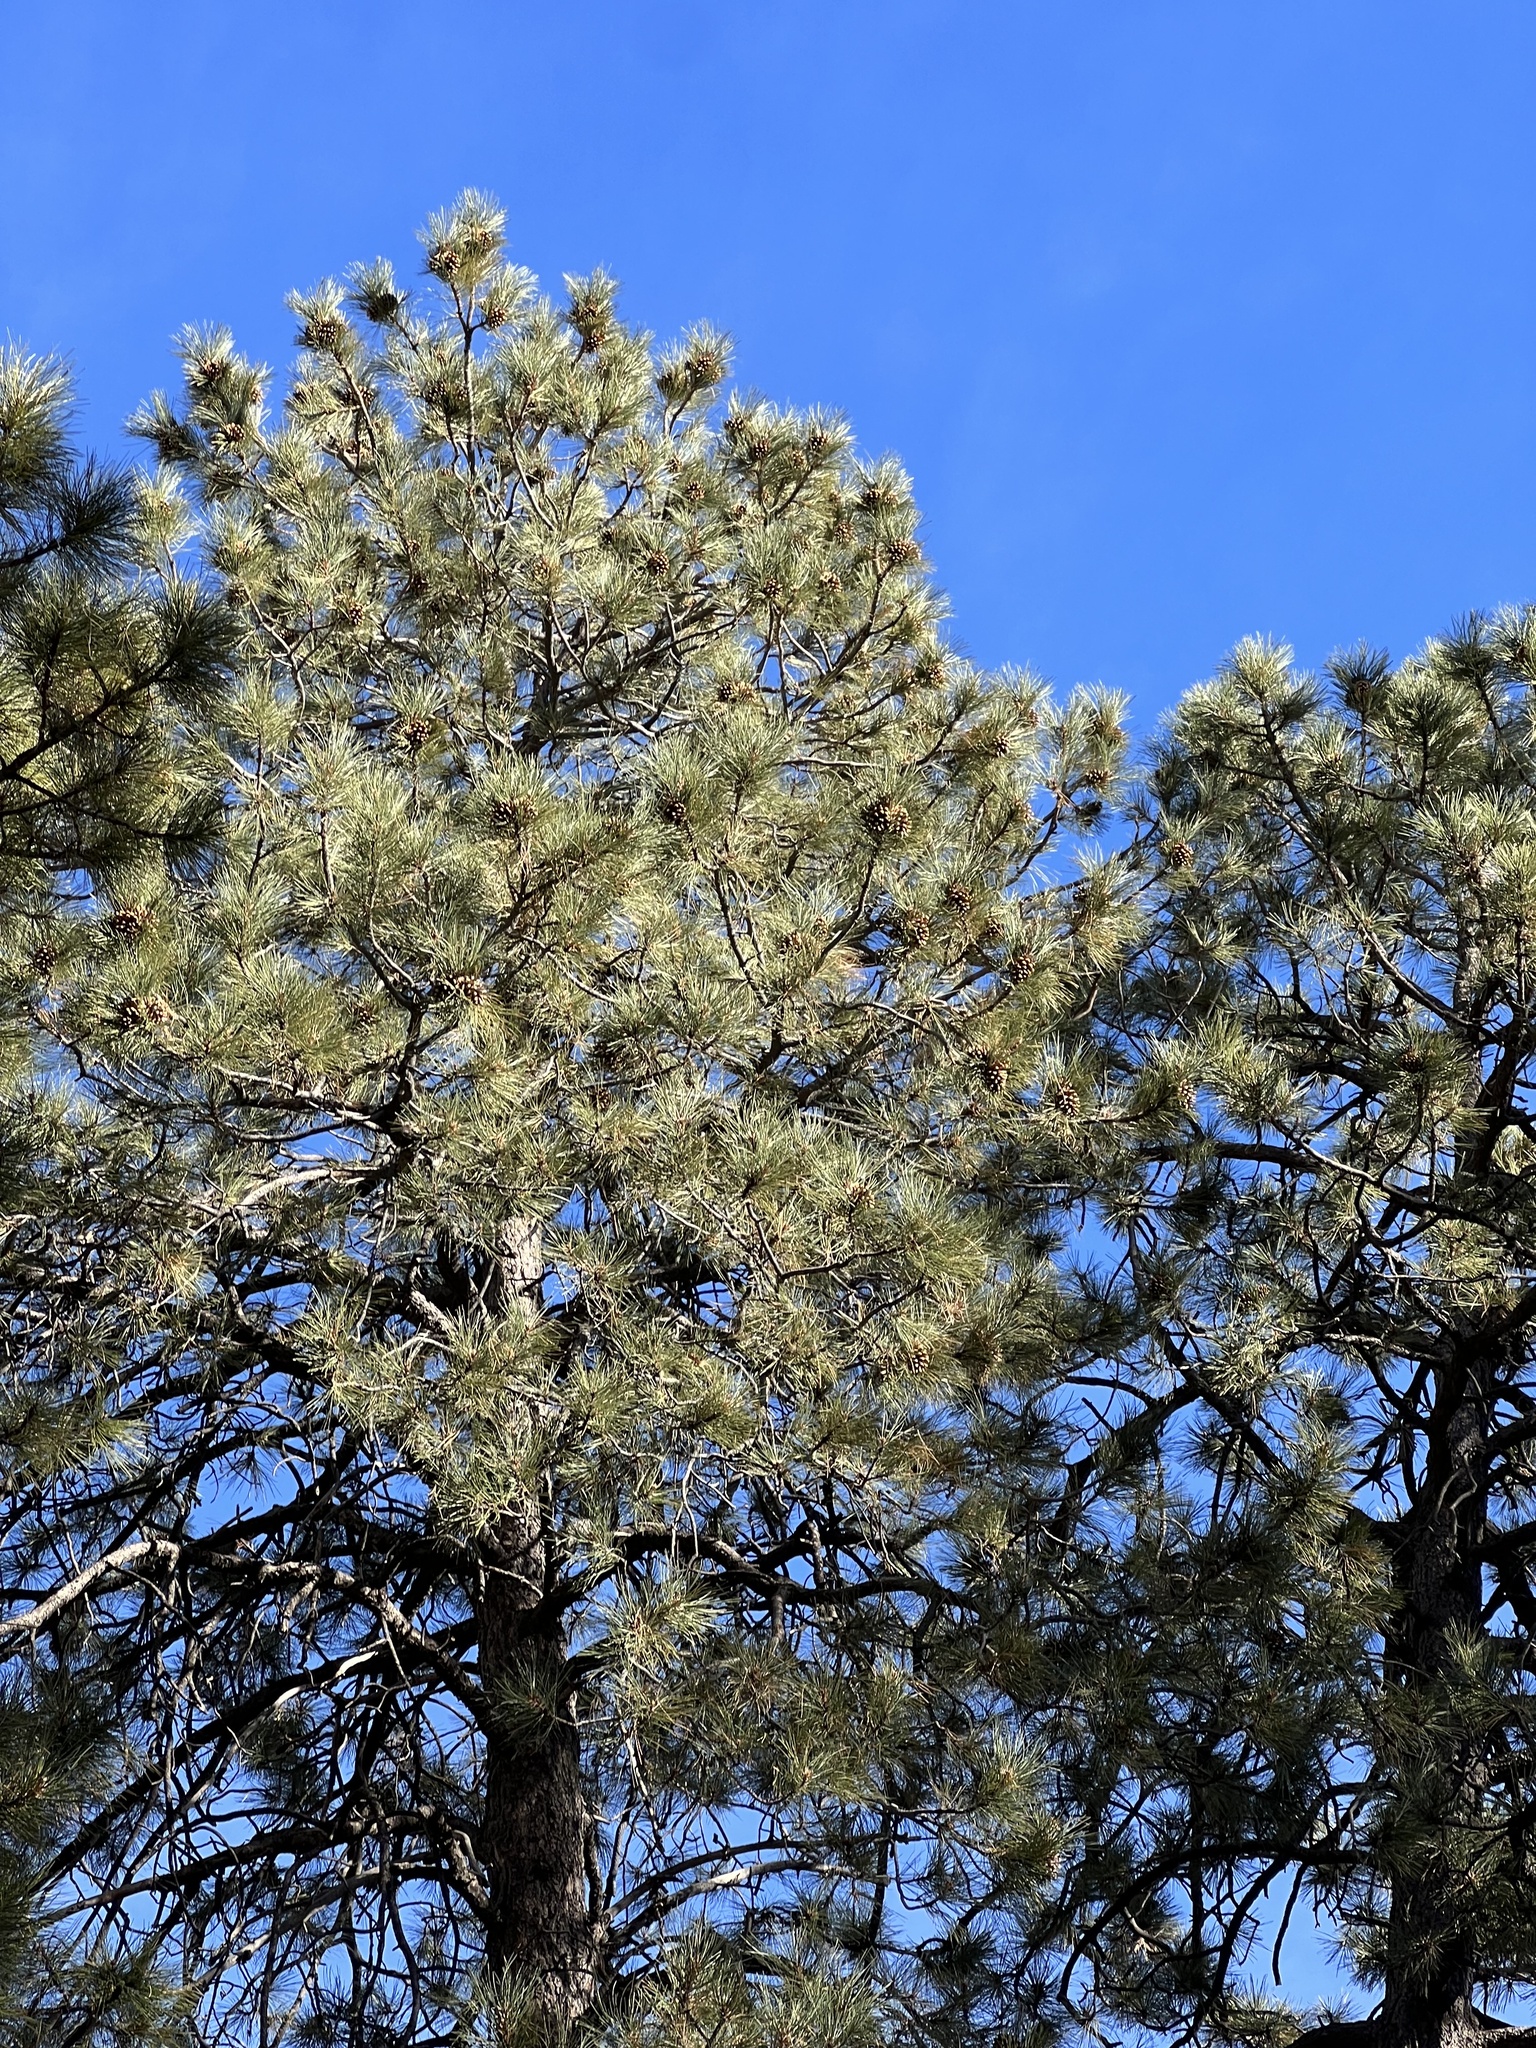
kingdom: Plantae
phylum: Tracheophyta
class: Pinopsida
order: Pinales
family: Pinaceae
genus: Pinus
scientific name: Pinus ponderosa
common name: Western yellow-pine
